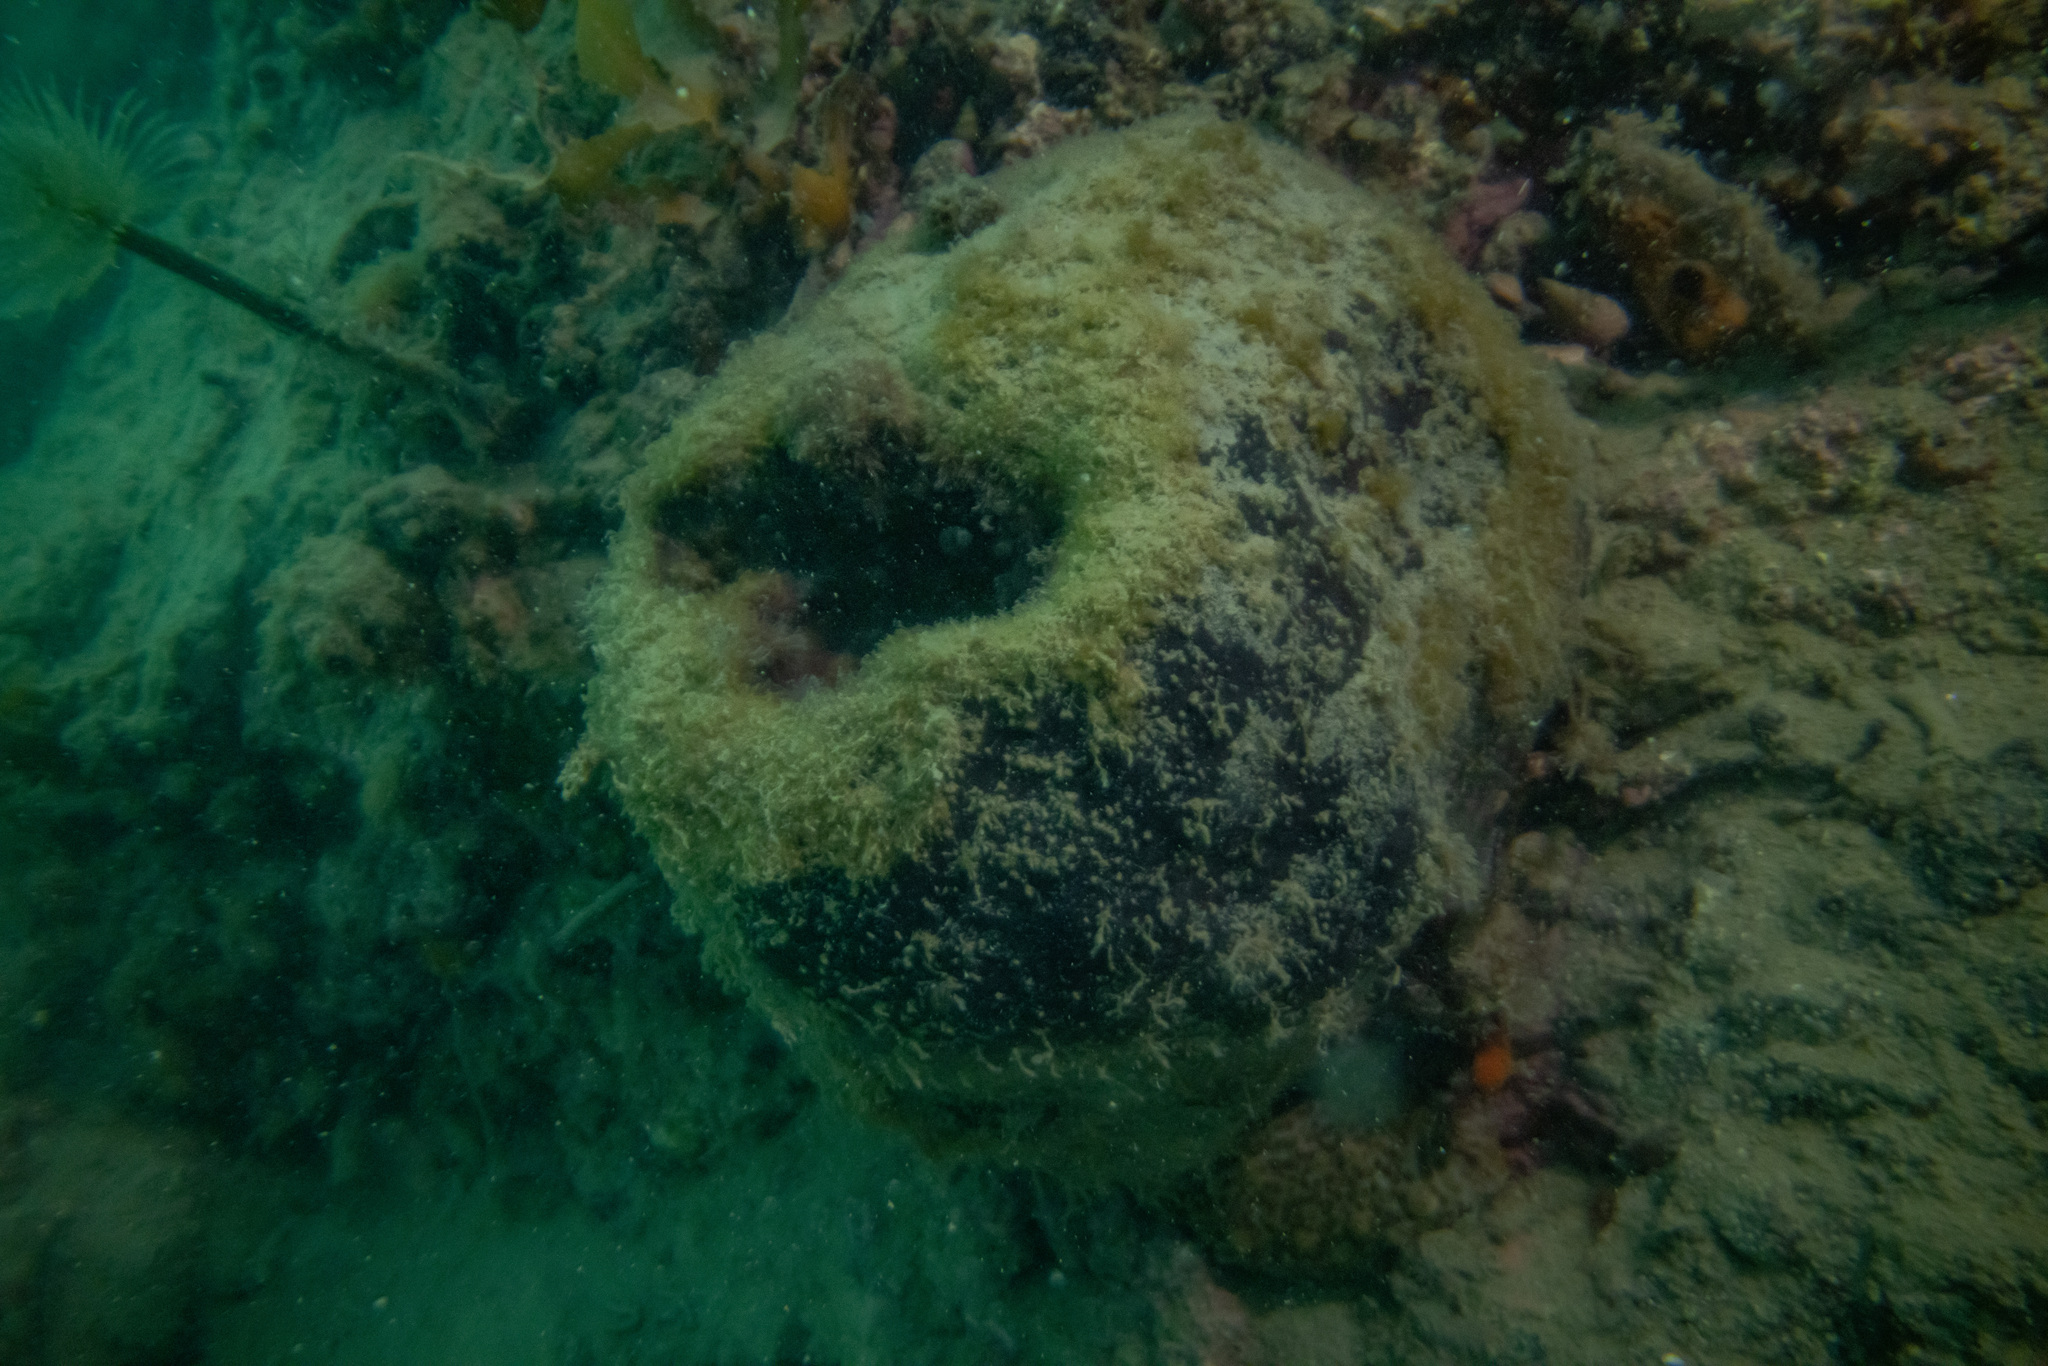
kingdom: Animalia
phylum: Porifera
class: Demospongiae
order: Tetractinellida
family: Ancorinidae
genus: Ecionemia
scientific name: Ecionemia alata
